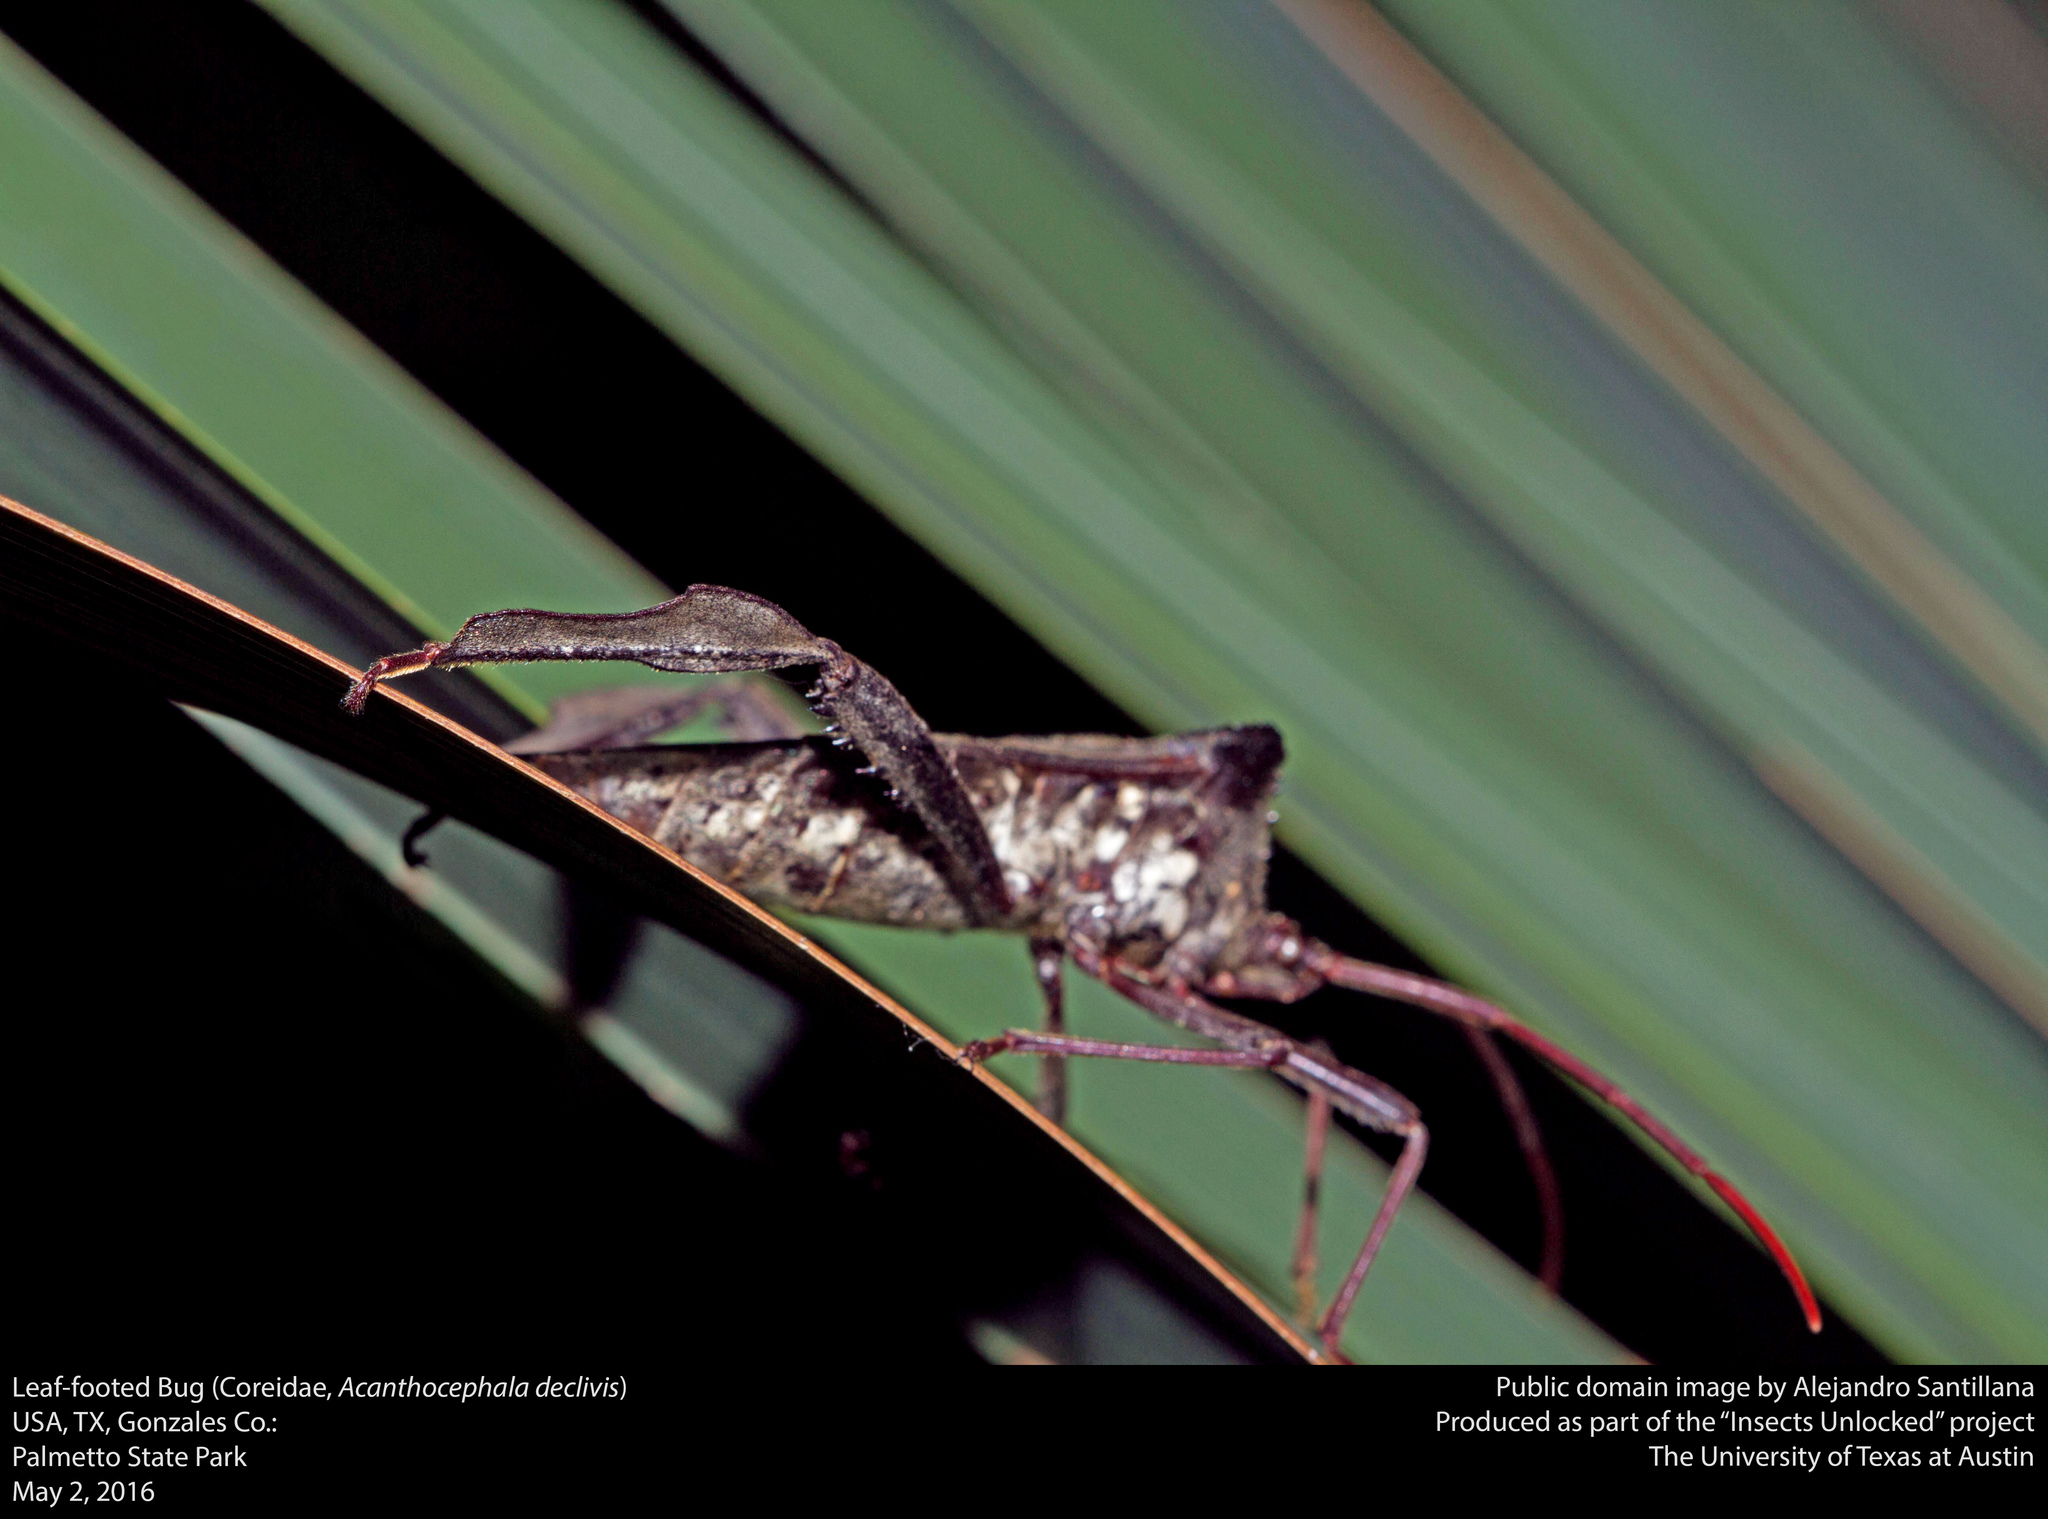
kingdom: Animalia
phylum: Arthropoda
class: Insecta
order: Hemiptera
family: Coreidae
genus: Acanthocephala
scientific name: Acanthocephala declivis
